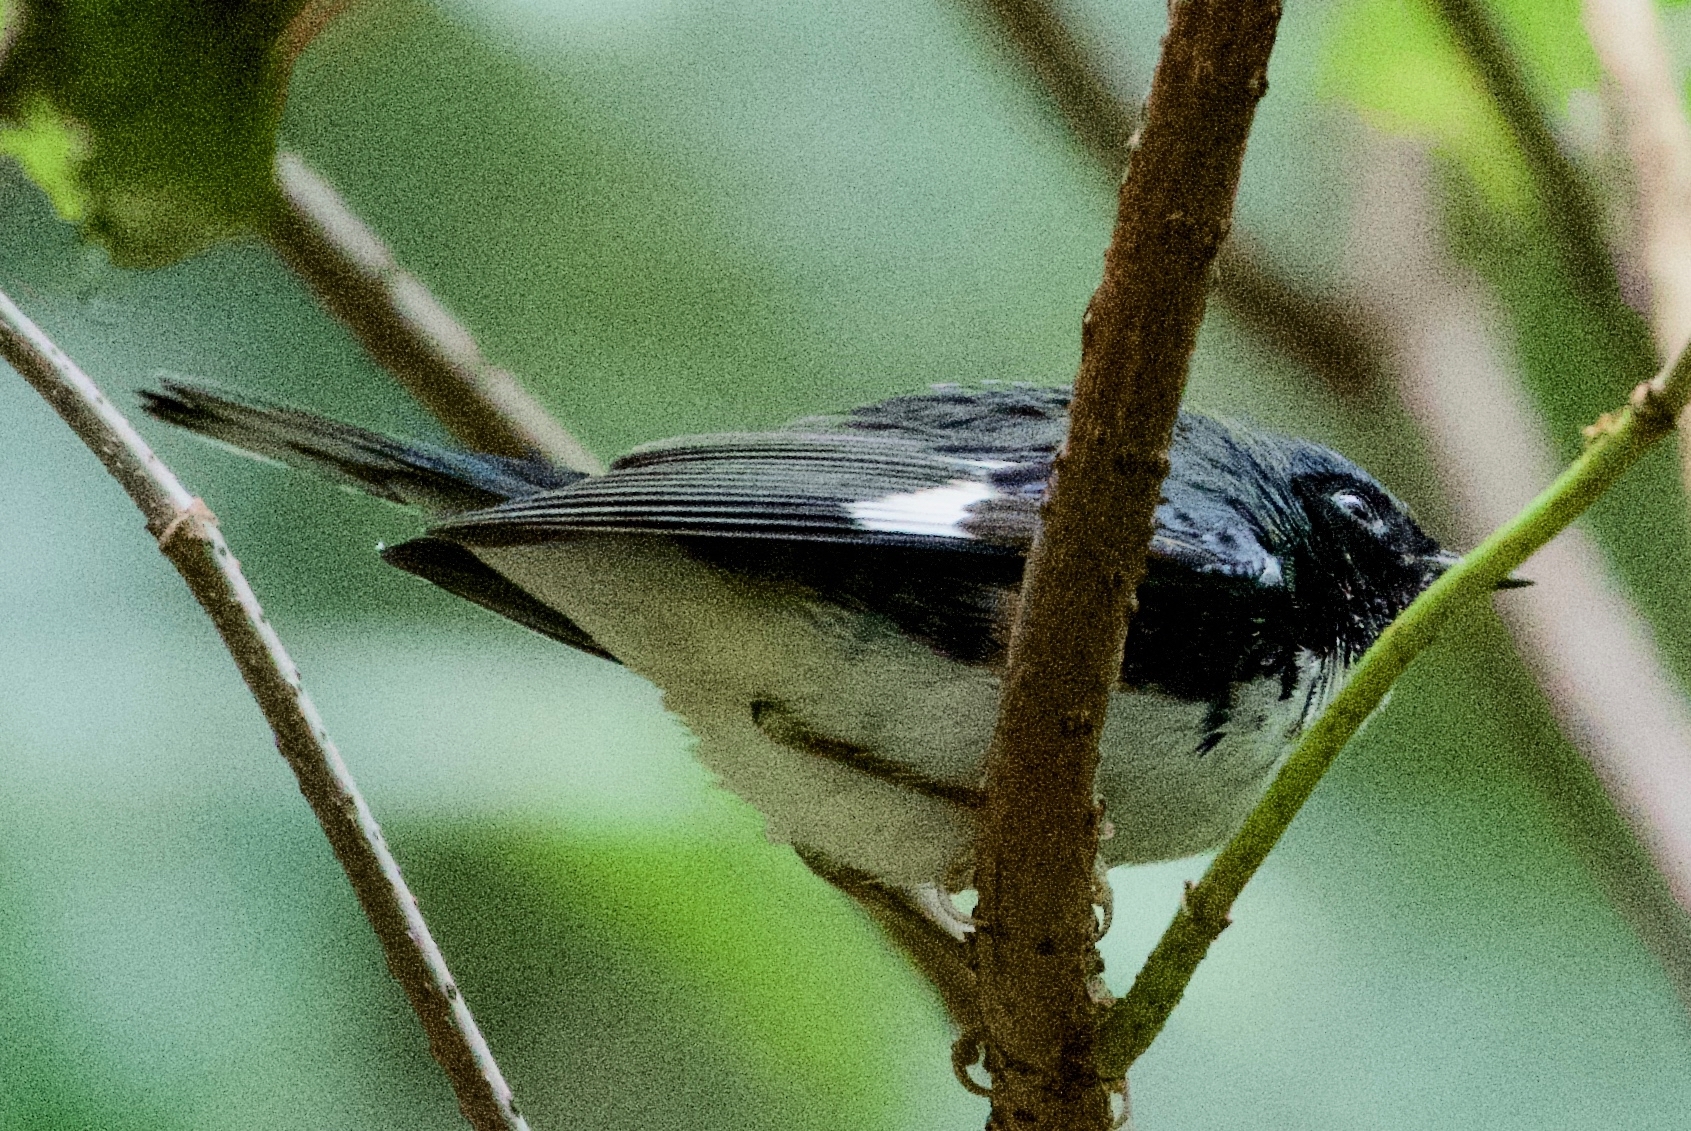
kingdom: Animalia
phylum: Chordata
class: Aves
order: Passeriformes
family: Parulidae
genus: Setophaga
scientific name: Setophaga caerulescens
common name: Black-throated blue warbler
